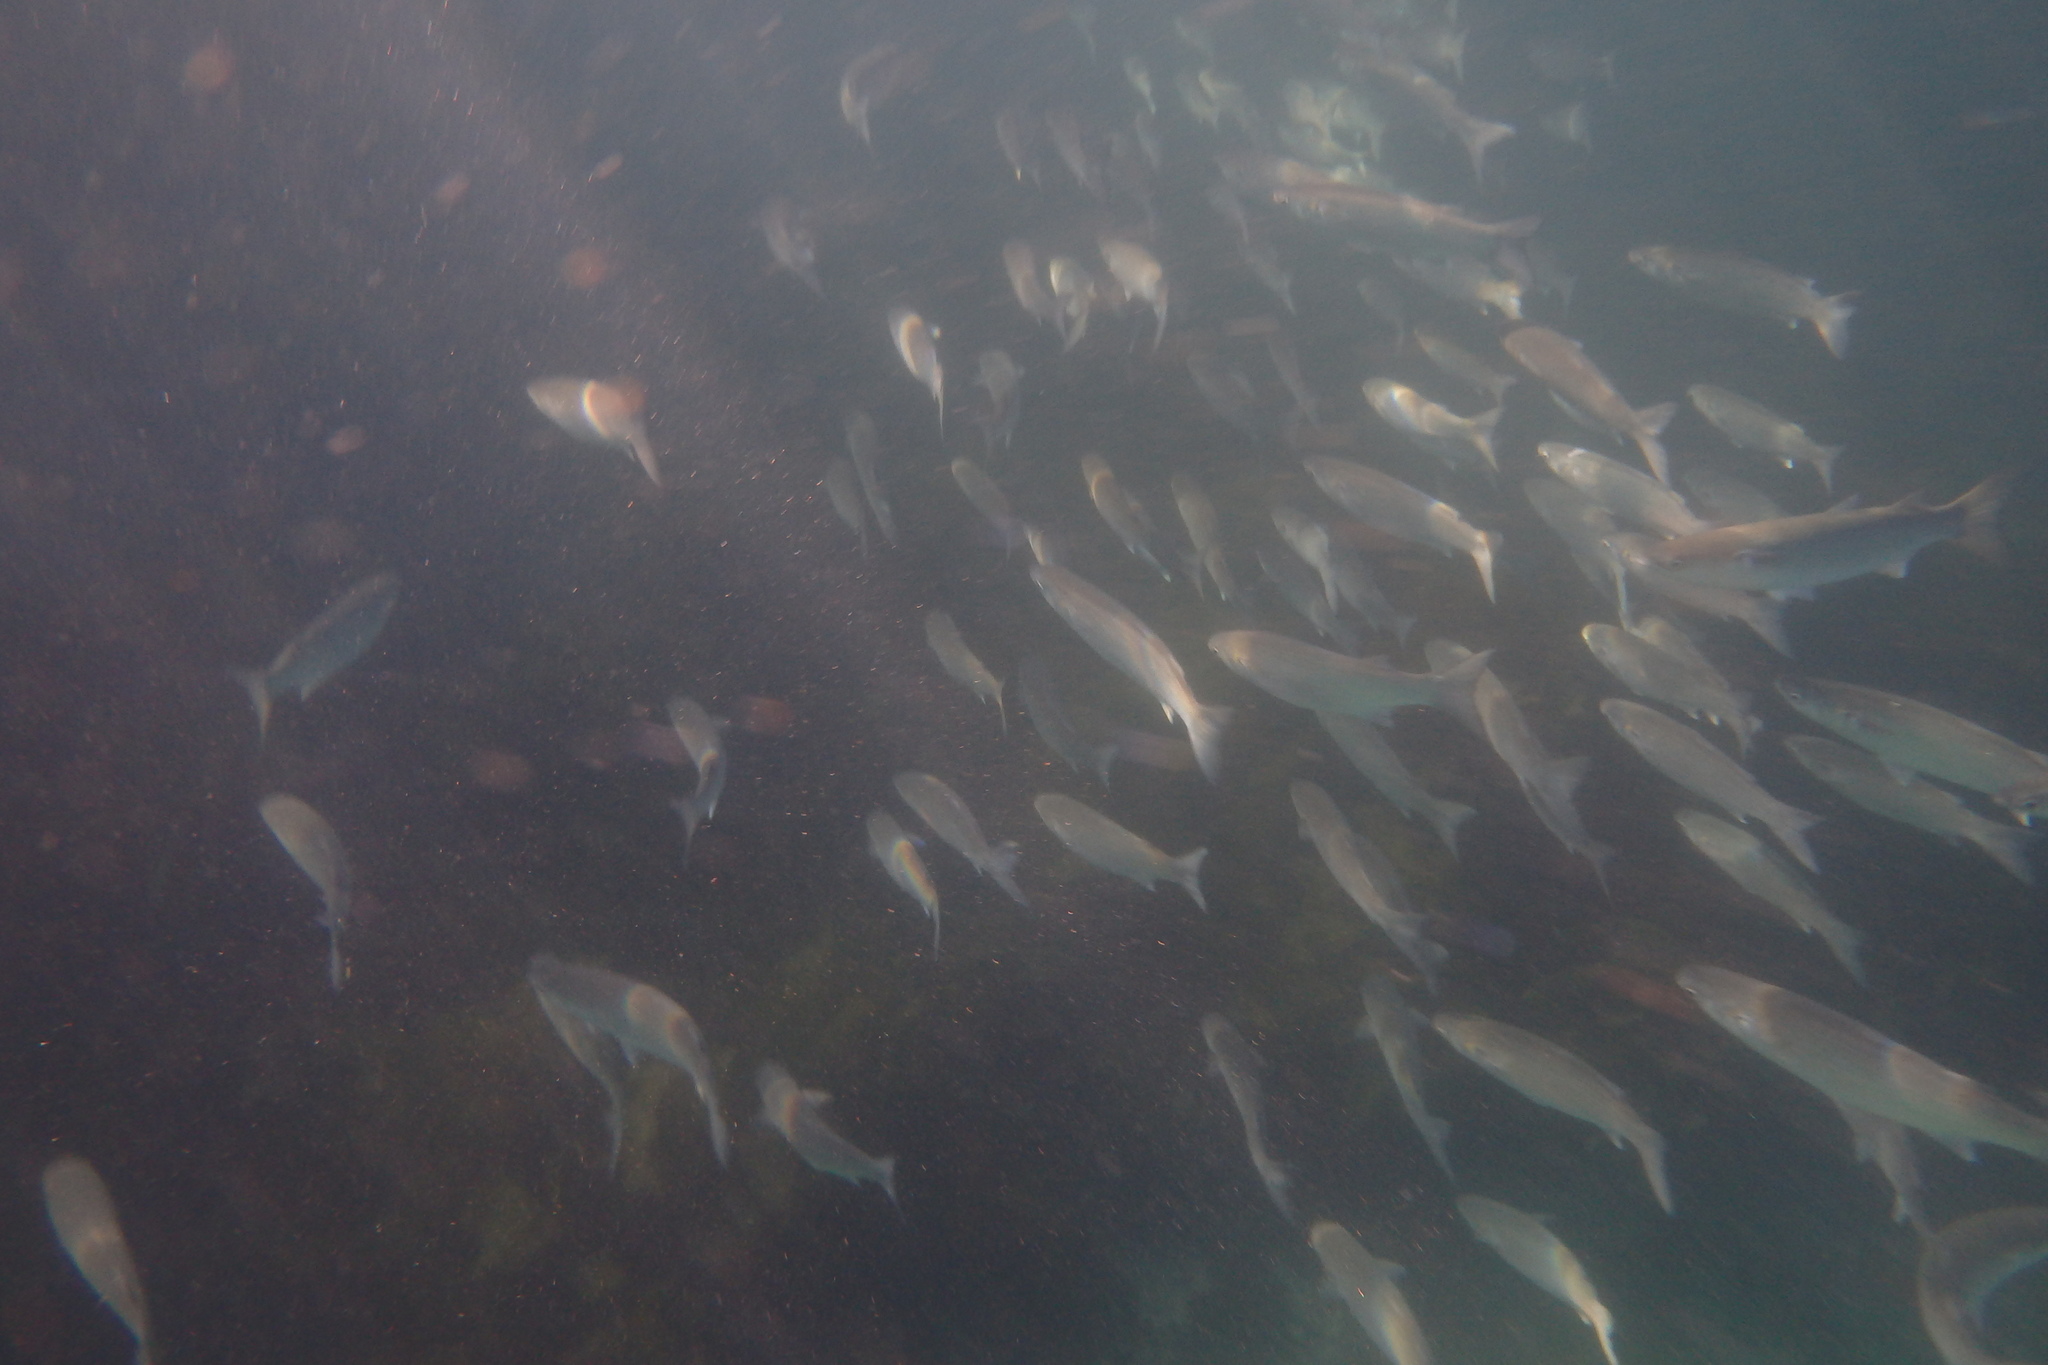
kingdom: Animalia
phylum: Chordata
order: Mugiliformes
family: Mugilidae
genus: Mugil
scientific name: Mugil cephalus
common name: Grey mullet
